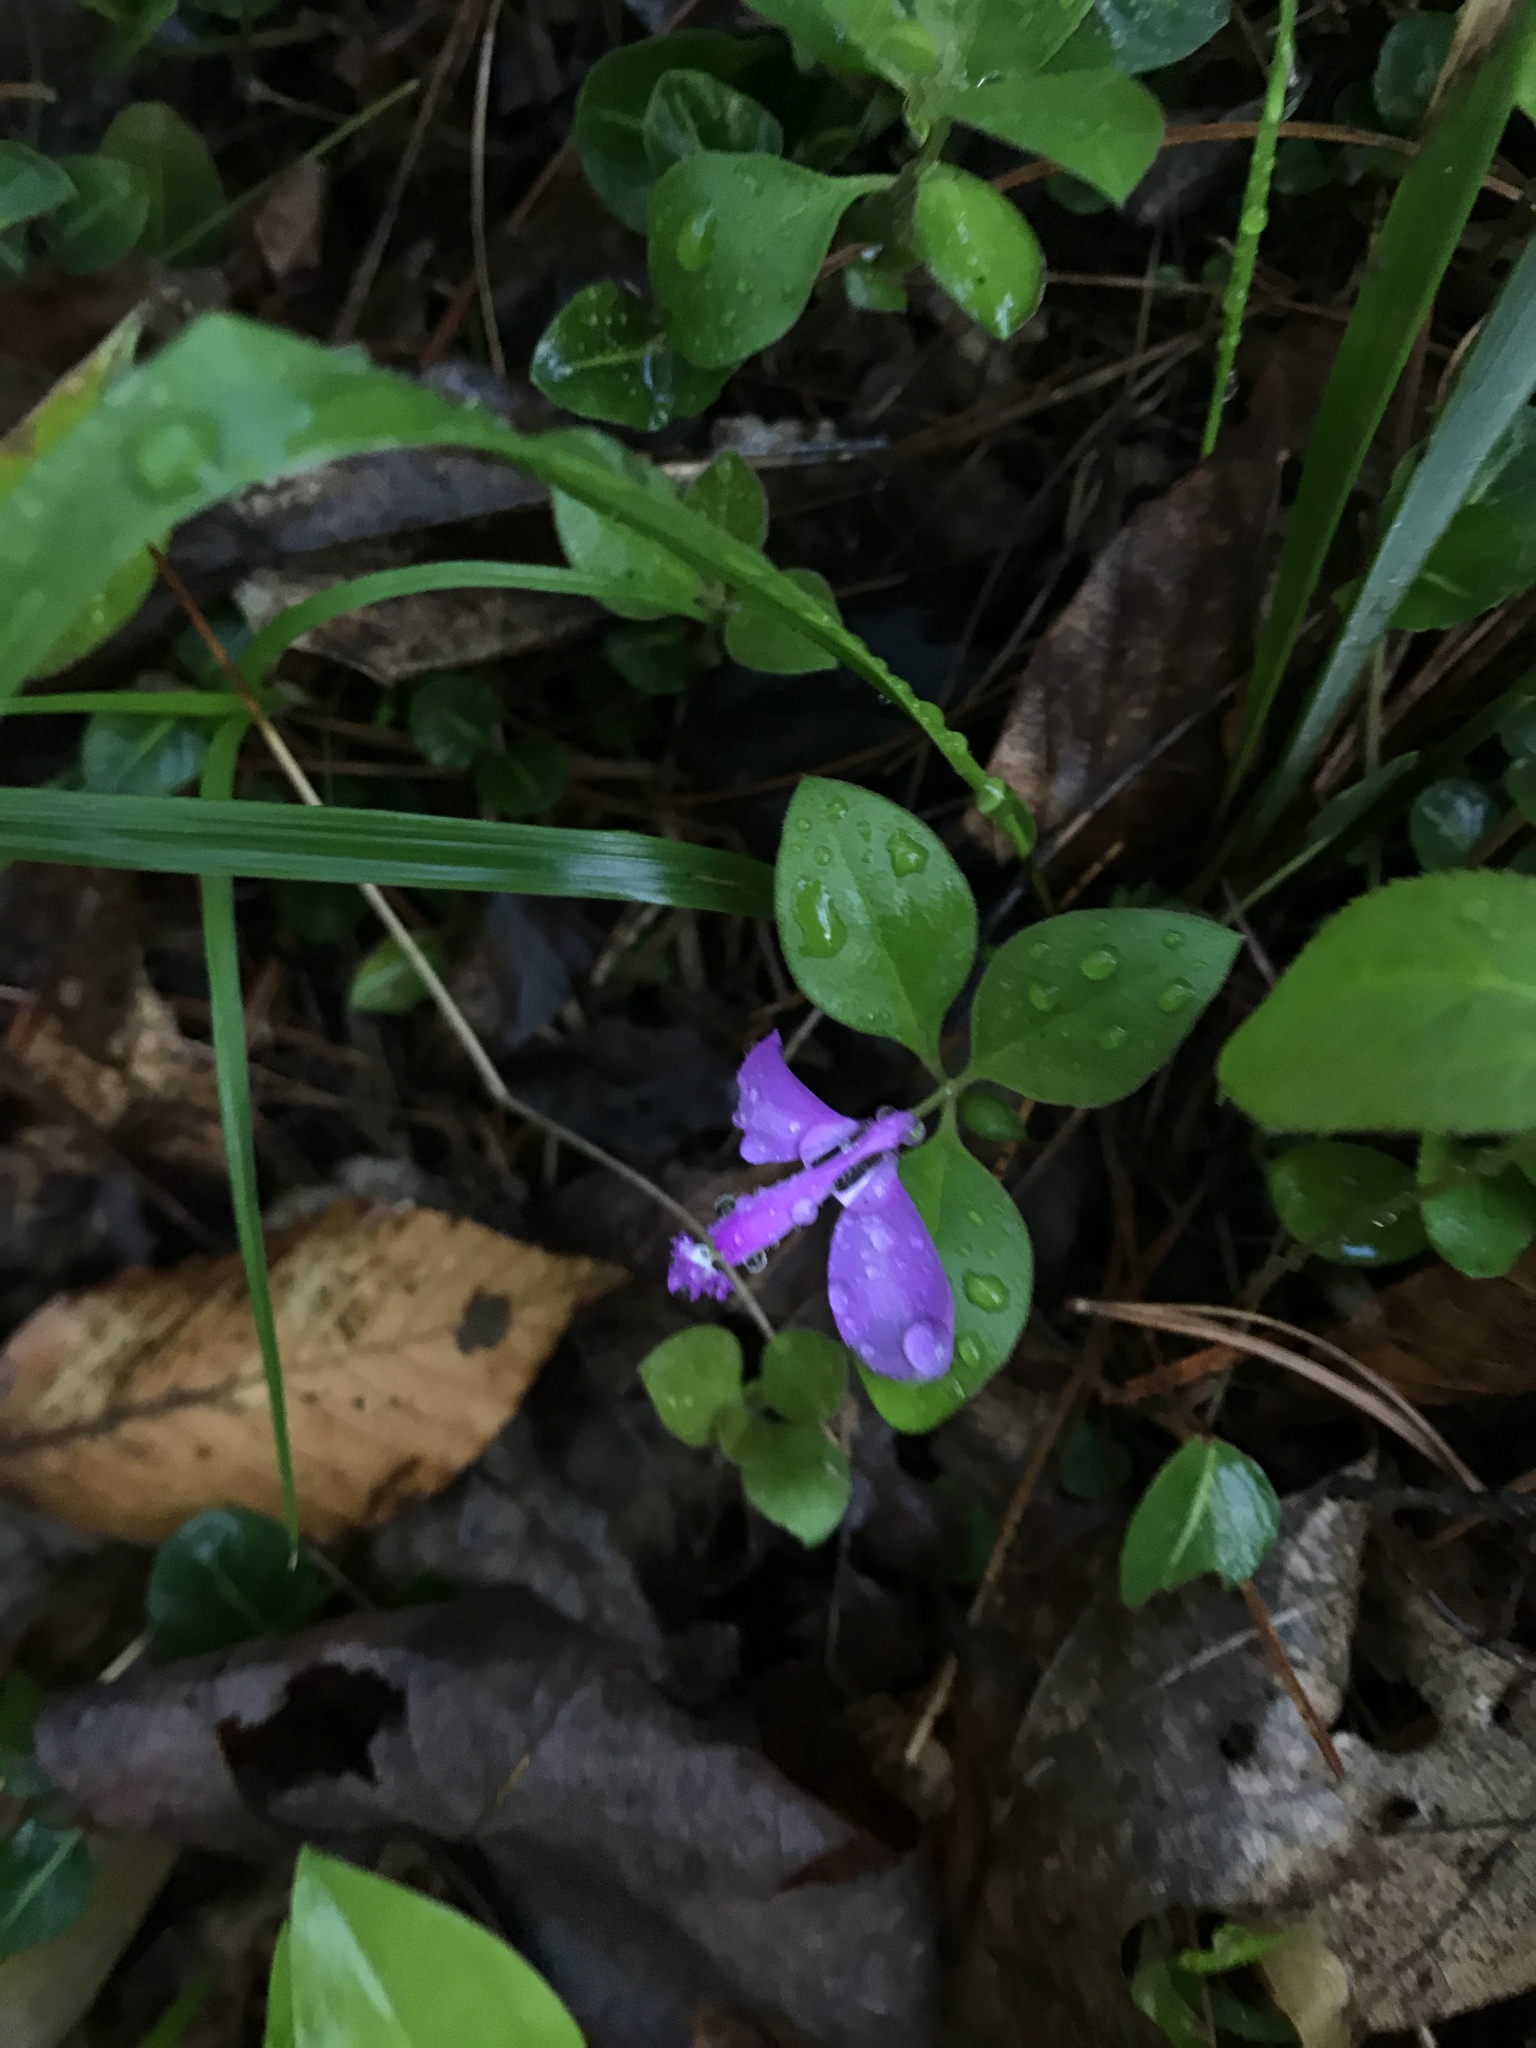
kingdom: Plantae
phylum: Tracheophyta
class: Magnoliopsida
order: Fabales
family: Polygalaceae
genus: Polygaloides
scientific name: Polygaloides paucifolia
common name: Bird-on-the-wing
